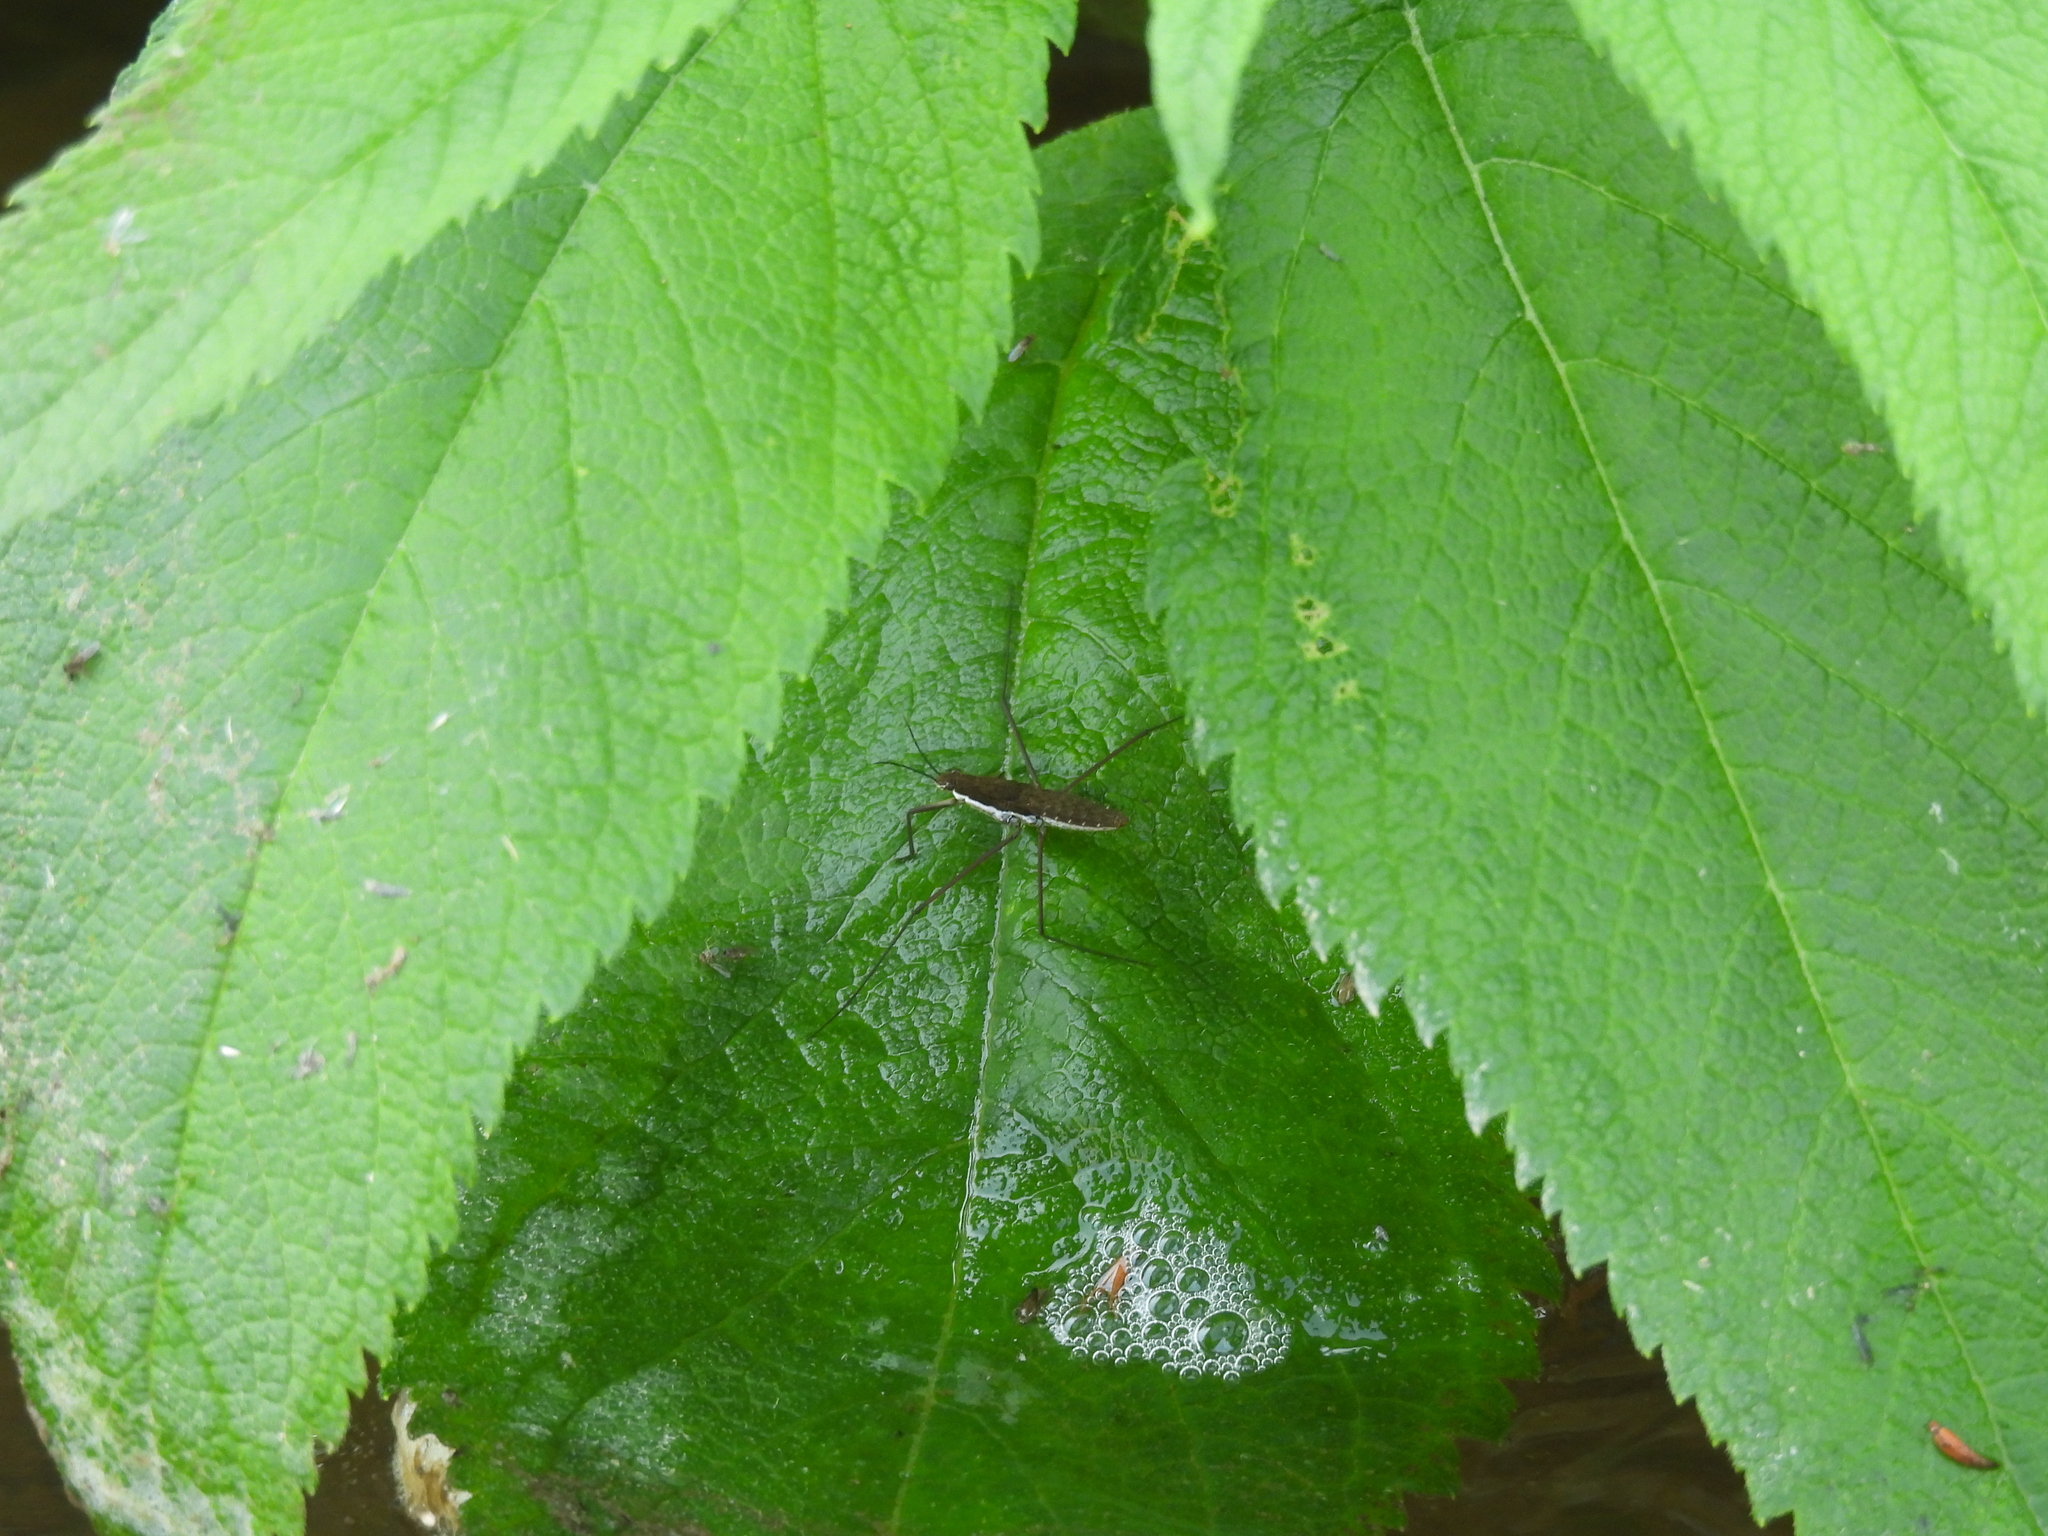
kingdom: Animalia
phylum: Arthropoda
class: Insecta
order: Hemiptera
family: Gerridae
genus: Aquarius
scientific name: Aquarius remigis
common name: Common water strider
